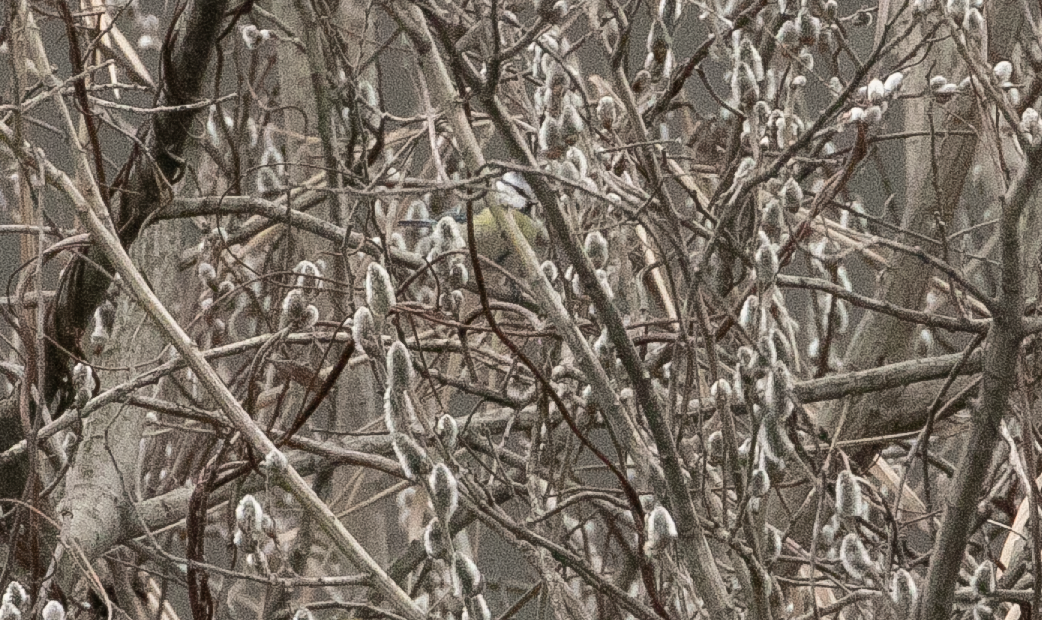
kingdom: Animalia
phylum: Chordata
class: Aves
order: Passeriformes
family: Paridae
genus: Cyanistes
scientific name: Cyanistes caeruleus
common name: Eurasian blue tit
